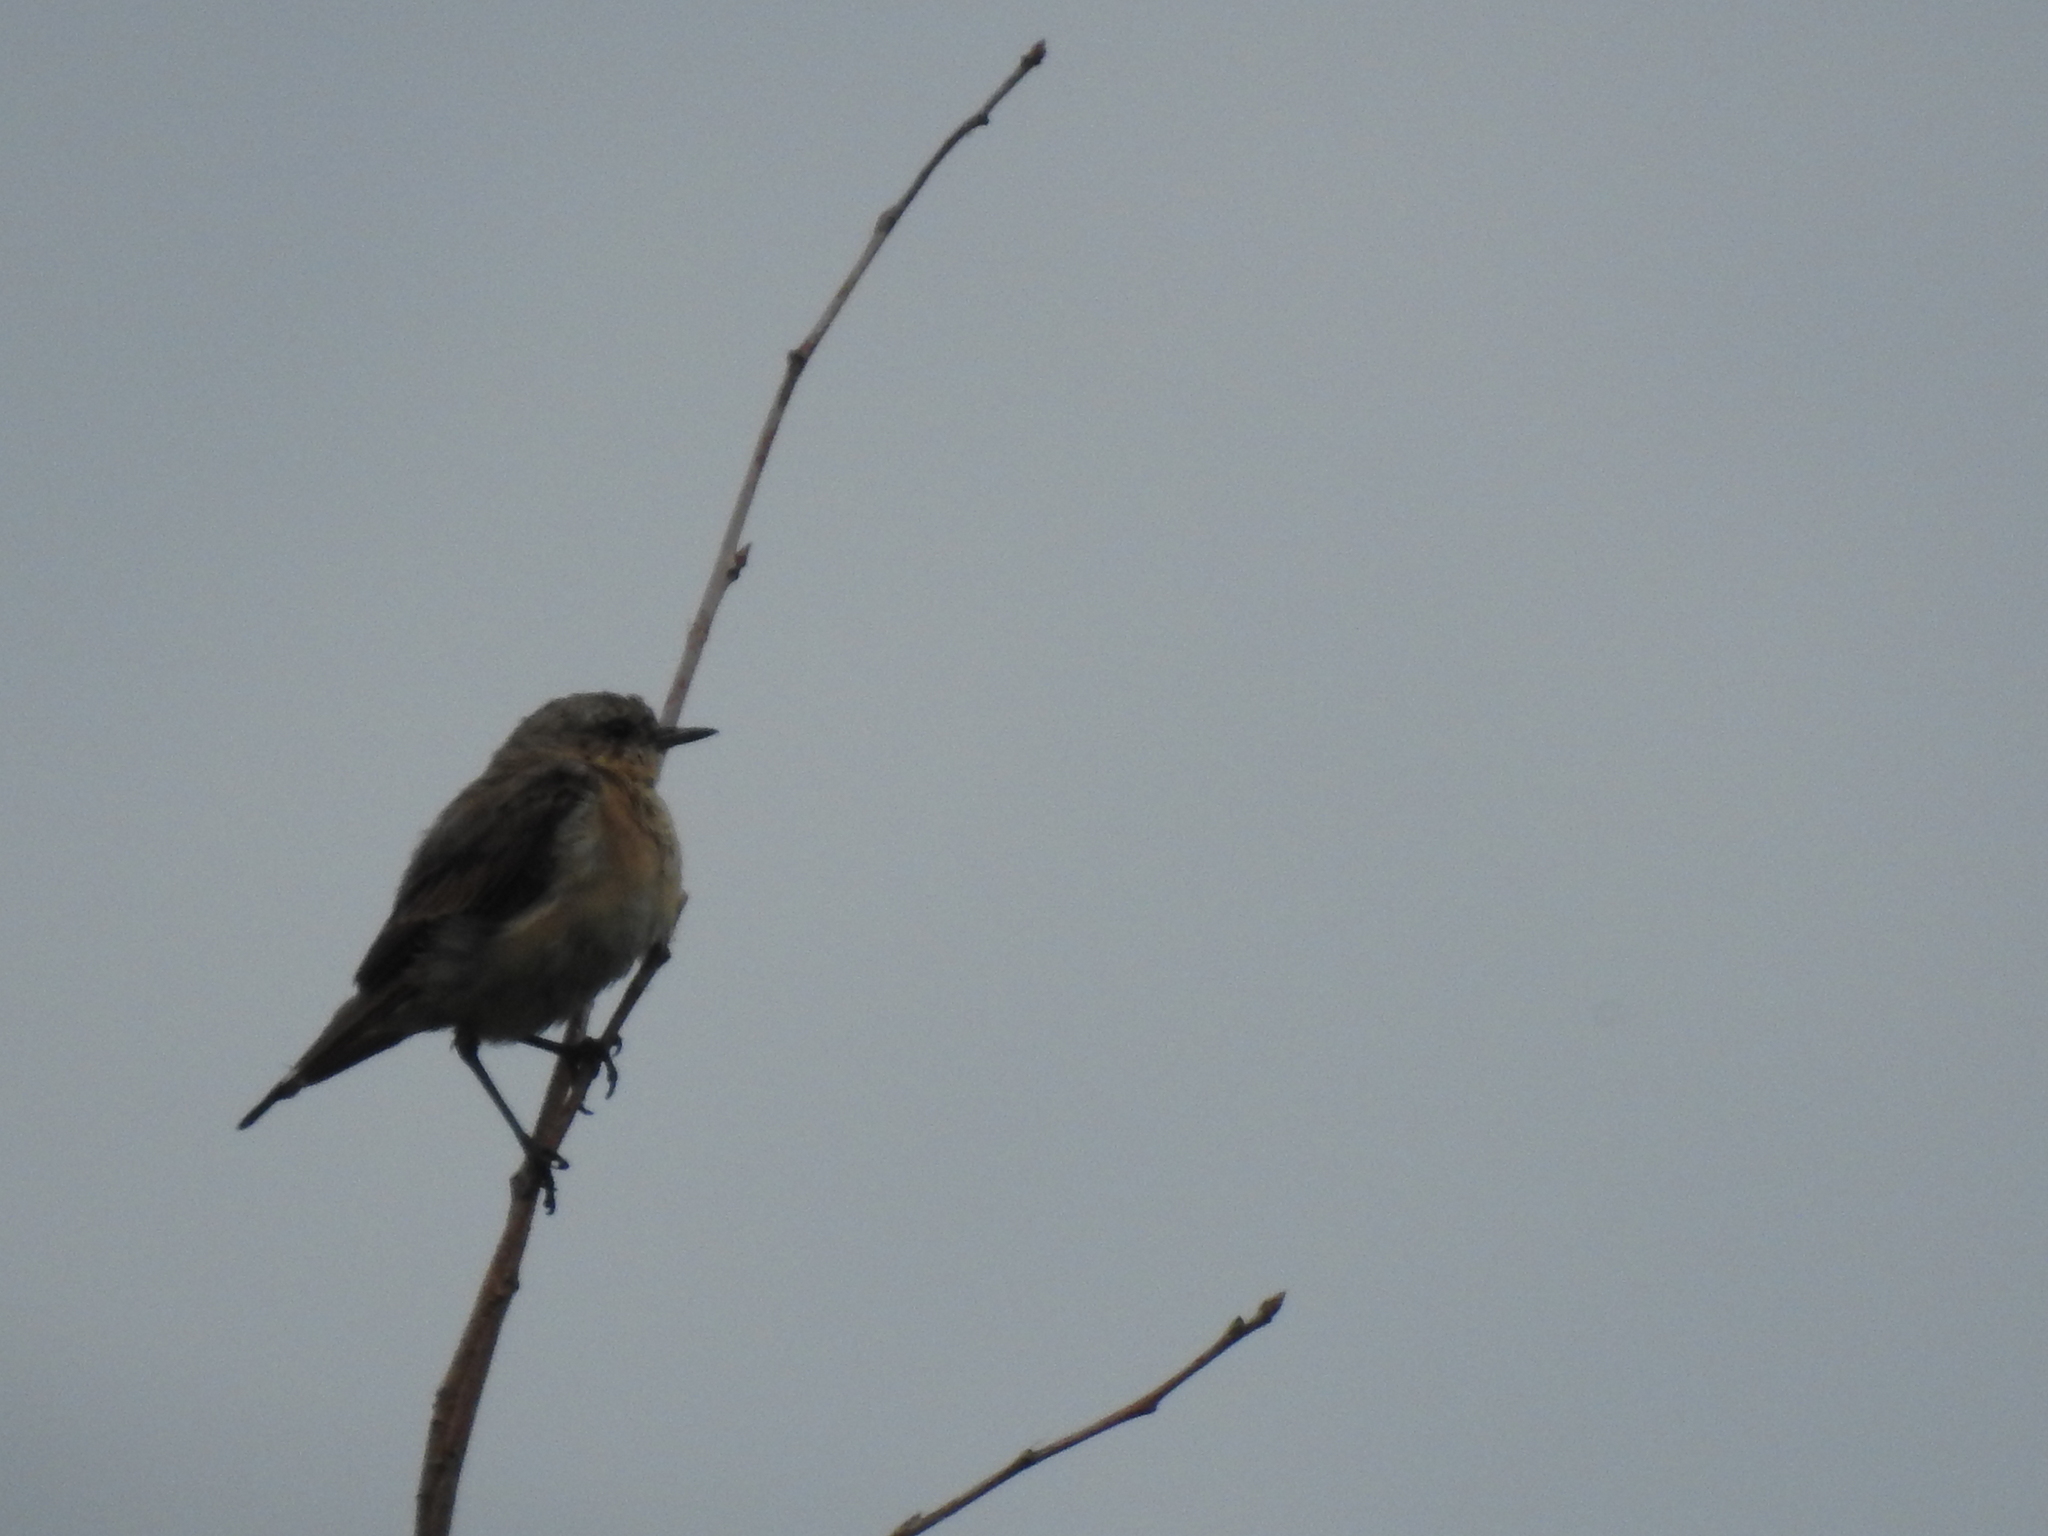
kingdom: Animalia
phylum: Chordata
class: Aves
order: Passeriformes
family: Muscicapidae
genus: Oenanthe
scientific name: Oenanthe oenanthe
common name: Northern wheatear
